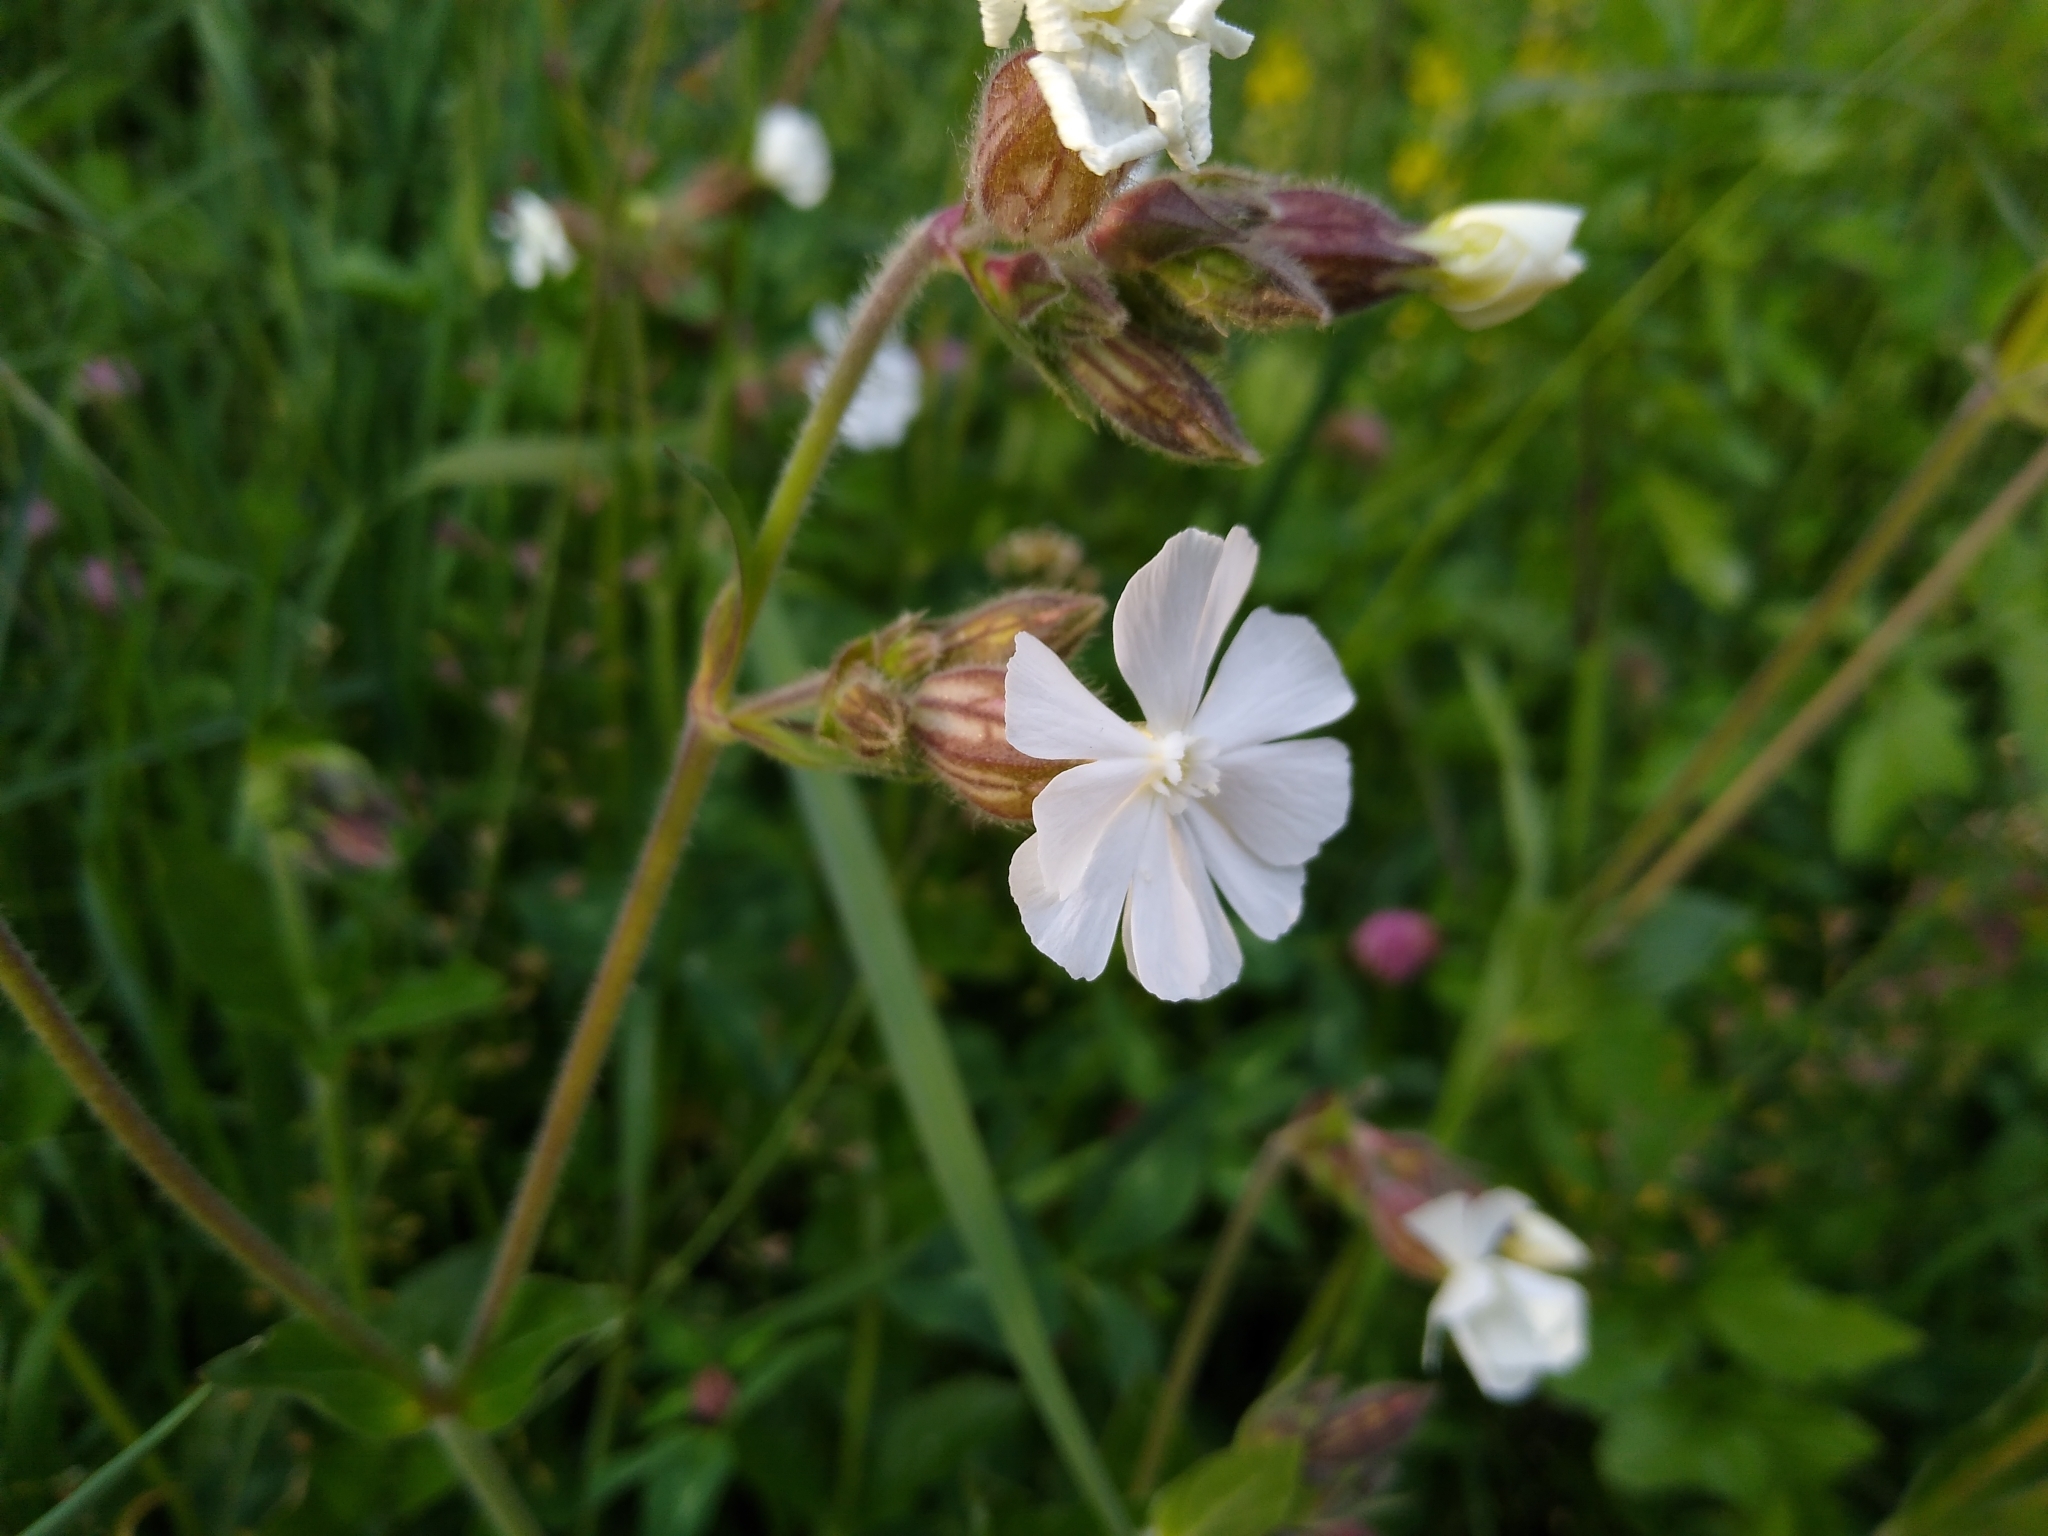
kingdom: Plantae
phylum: Tracheophyta
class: Magnoliopsida
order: Caryophyllales
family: Caryophyllaceae
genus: Silene
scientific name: Silene latifolia
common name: White campion
